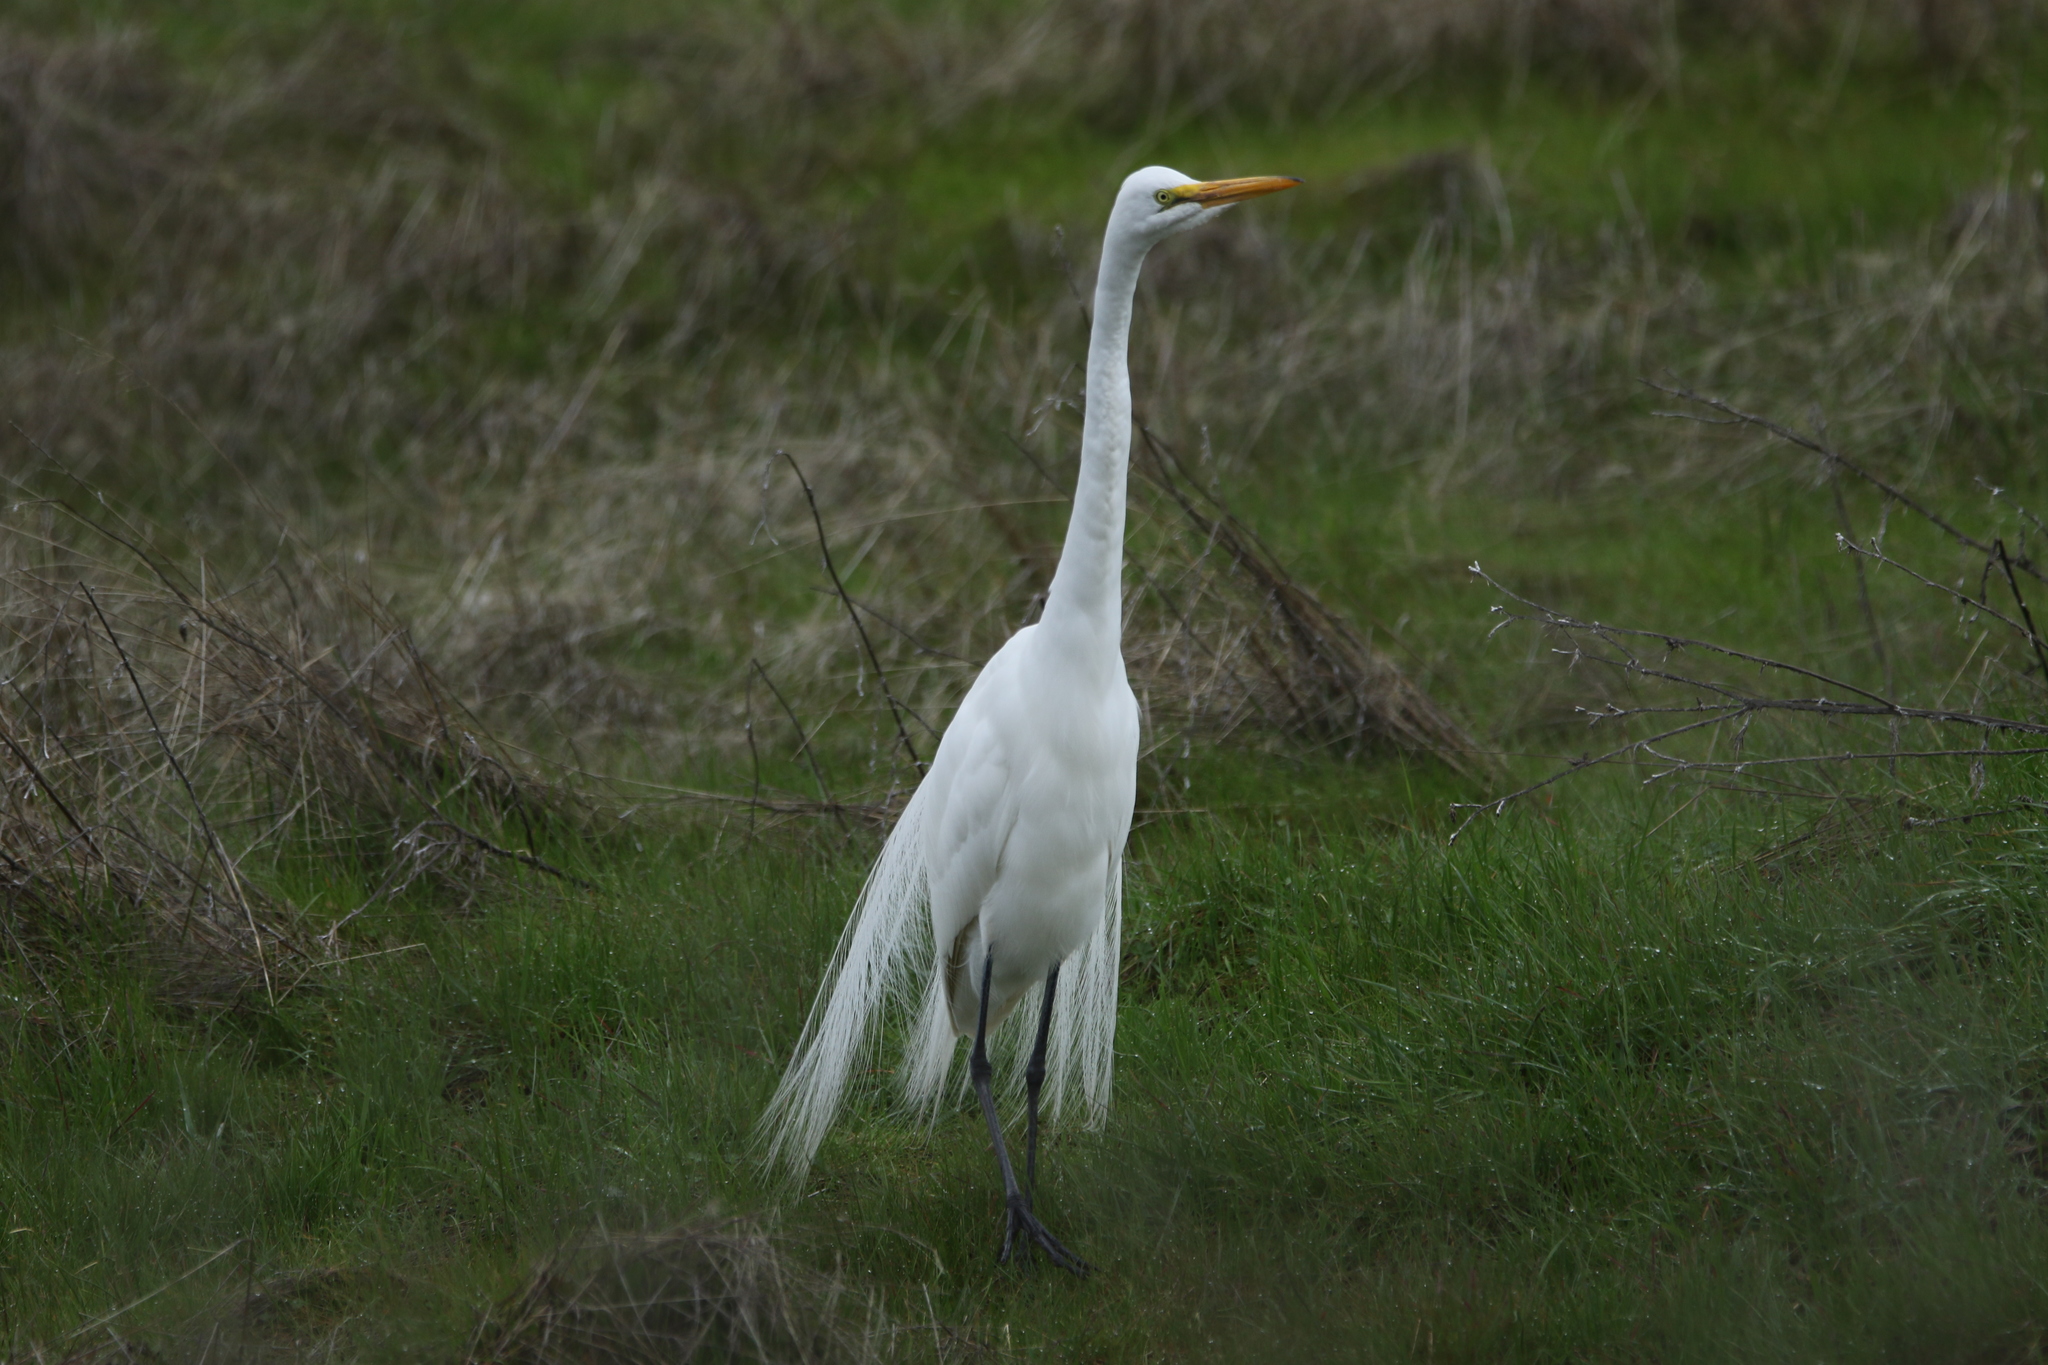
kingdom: Animalia
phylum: Chordata
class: Aves
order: Pelecaniformes
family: Ardeidae
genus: Ardea
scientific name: Ardea alba
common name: Great egret
